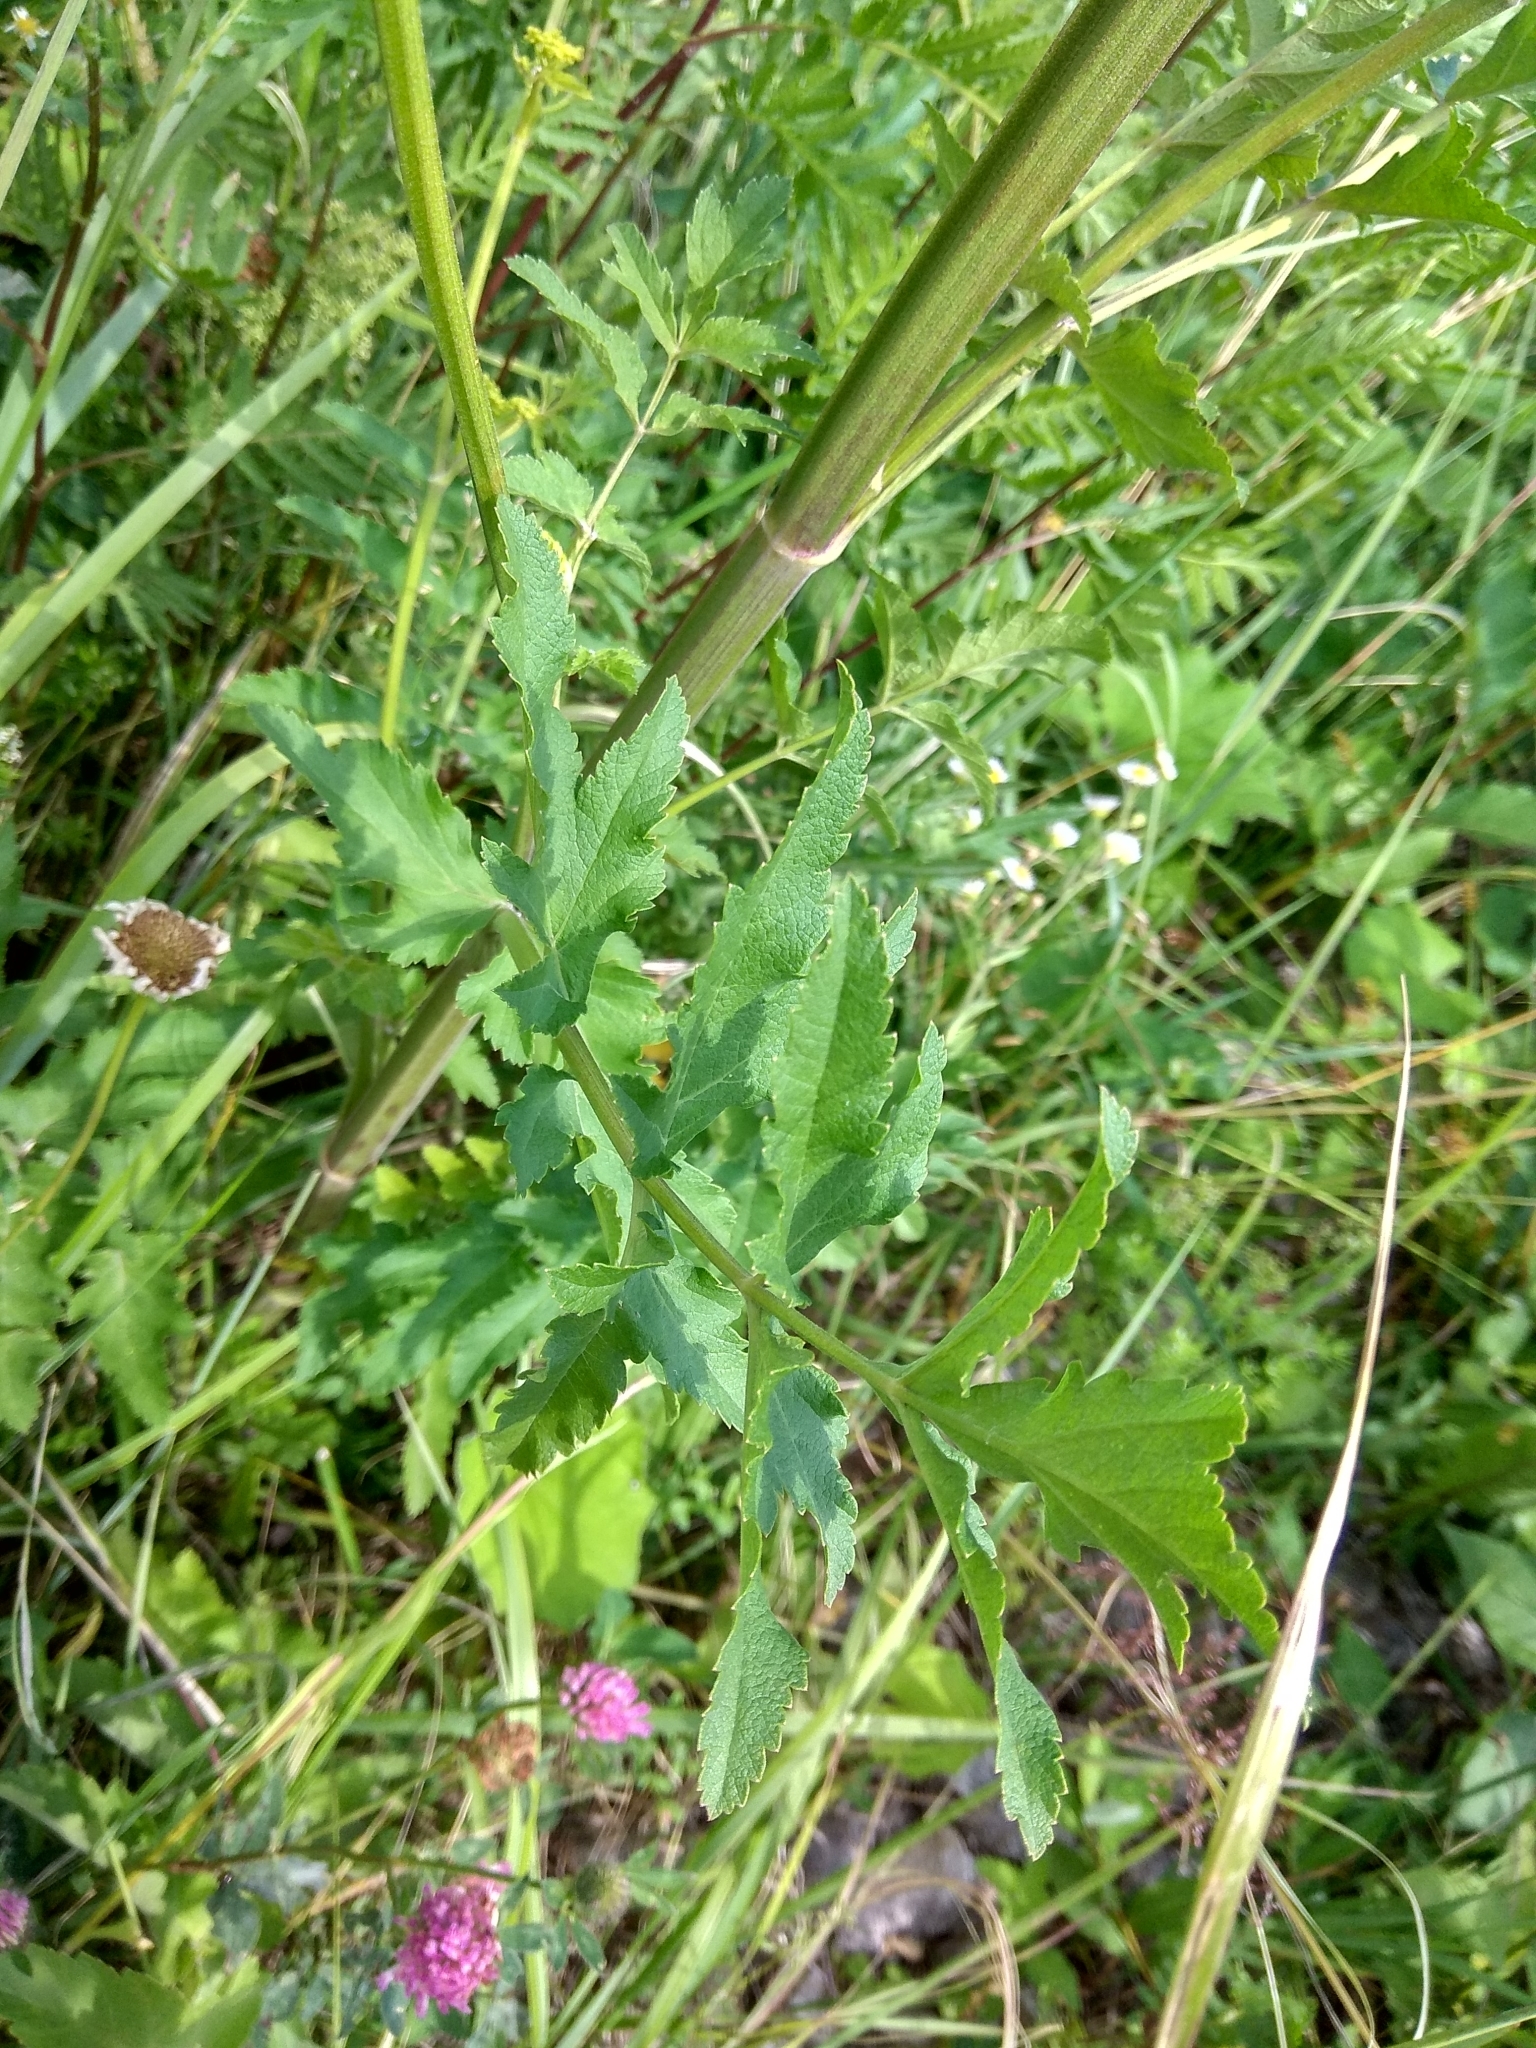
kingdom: Plantae
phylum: Tracheophyta
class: Magnoliopsida
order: Apiales
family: Apiaceae
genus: Pastinaca
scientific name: Pastinaca sativa
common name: Wild parsnip
